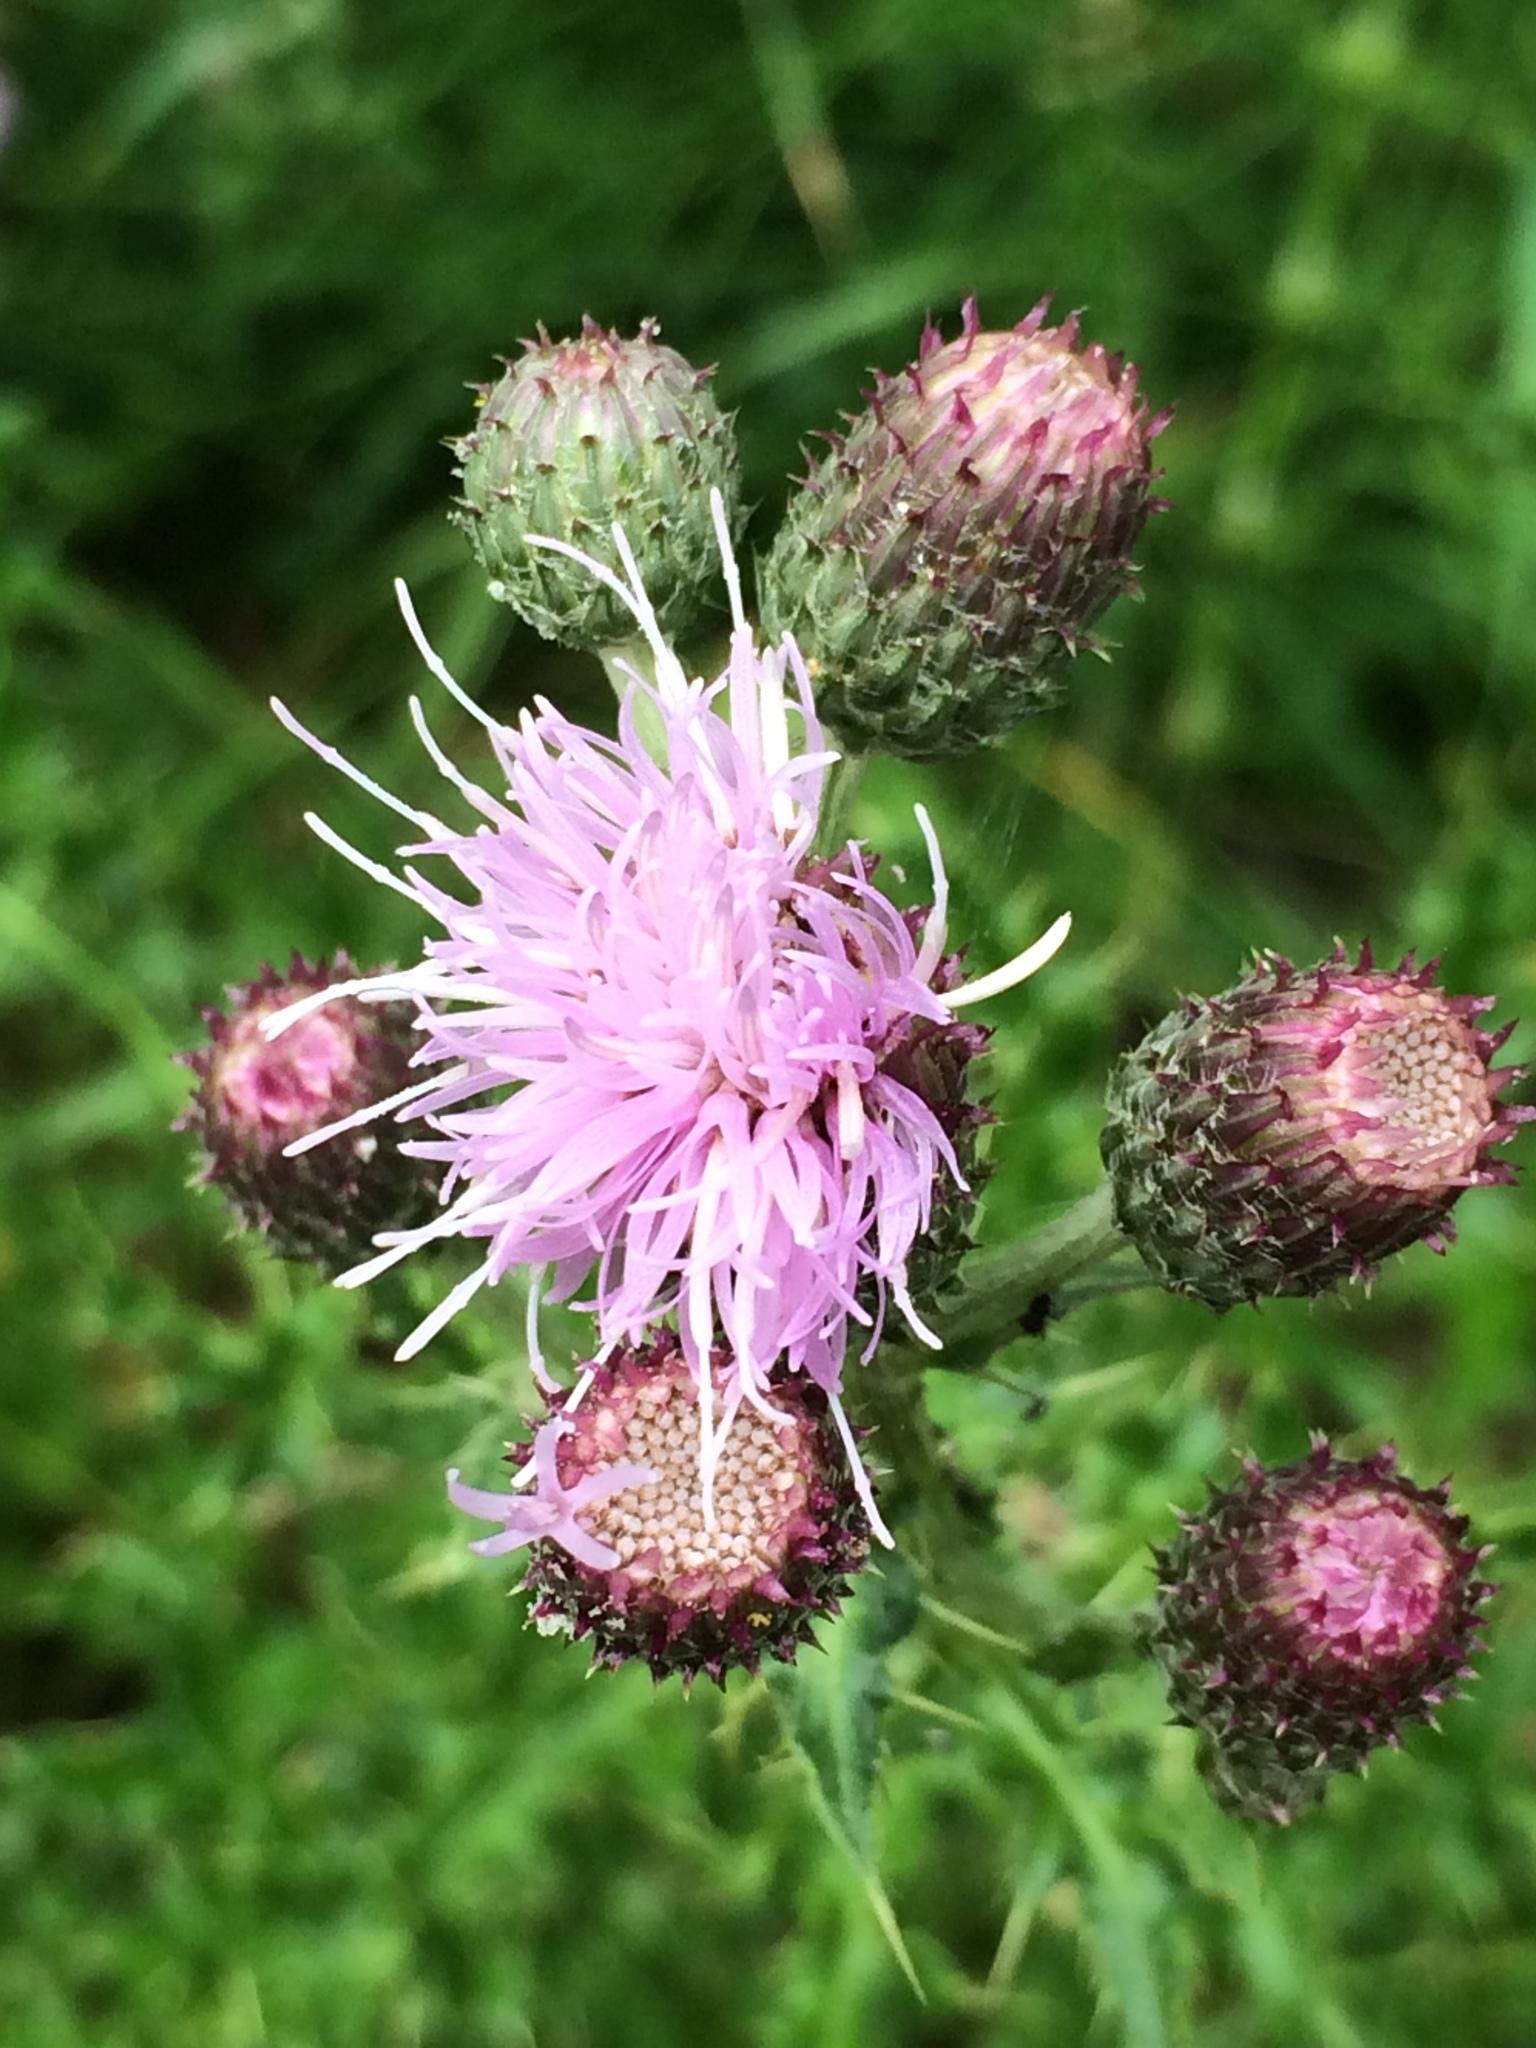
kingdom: Plantae
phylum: Tracheophyta
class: Magnoliopsida
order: Asterales
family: Asteraceae
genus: Cirsium
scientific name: Cirsium arvense
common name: Creeping thistle
